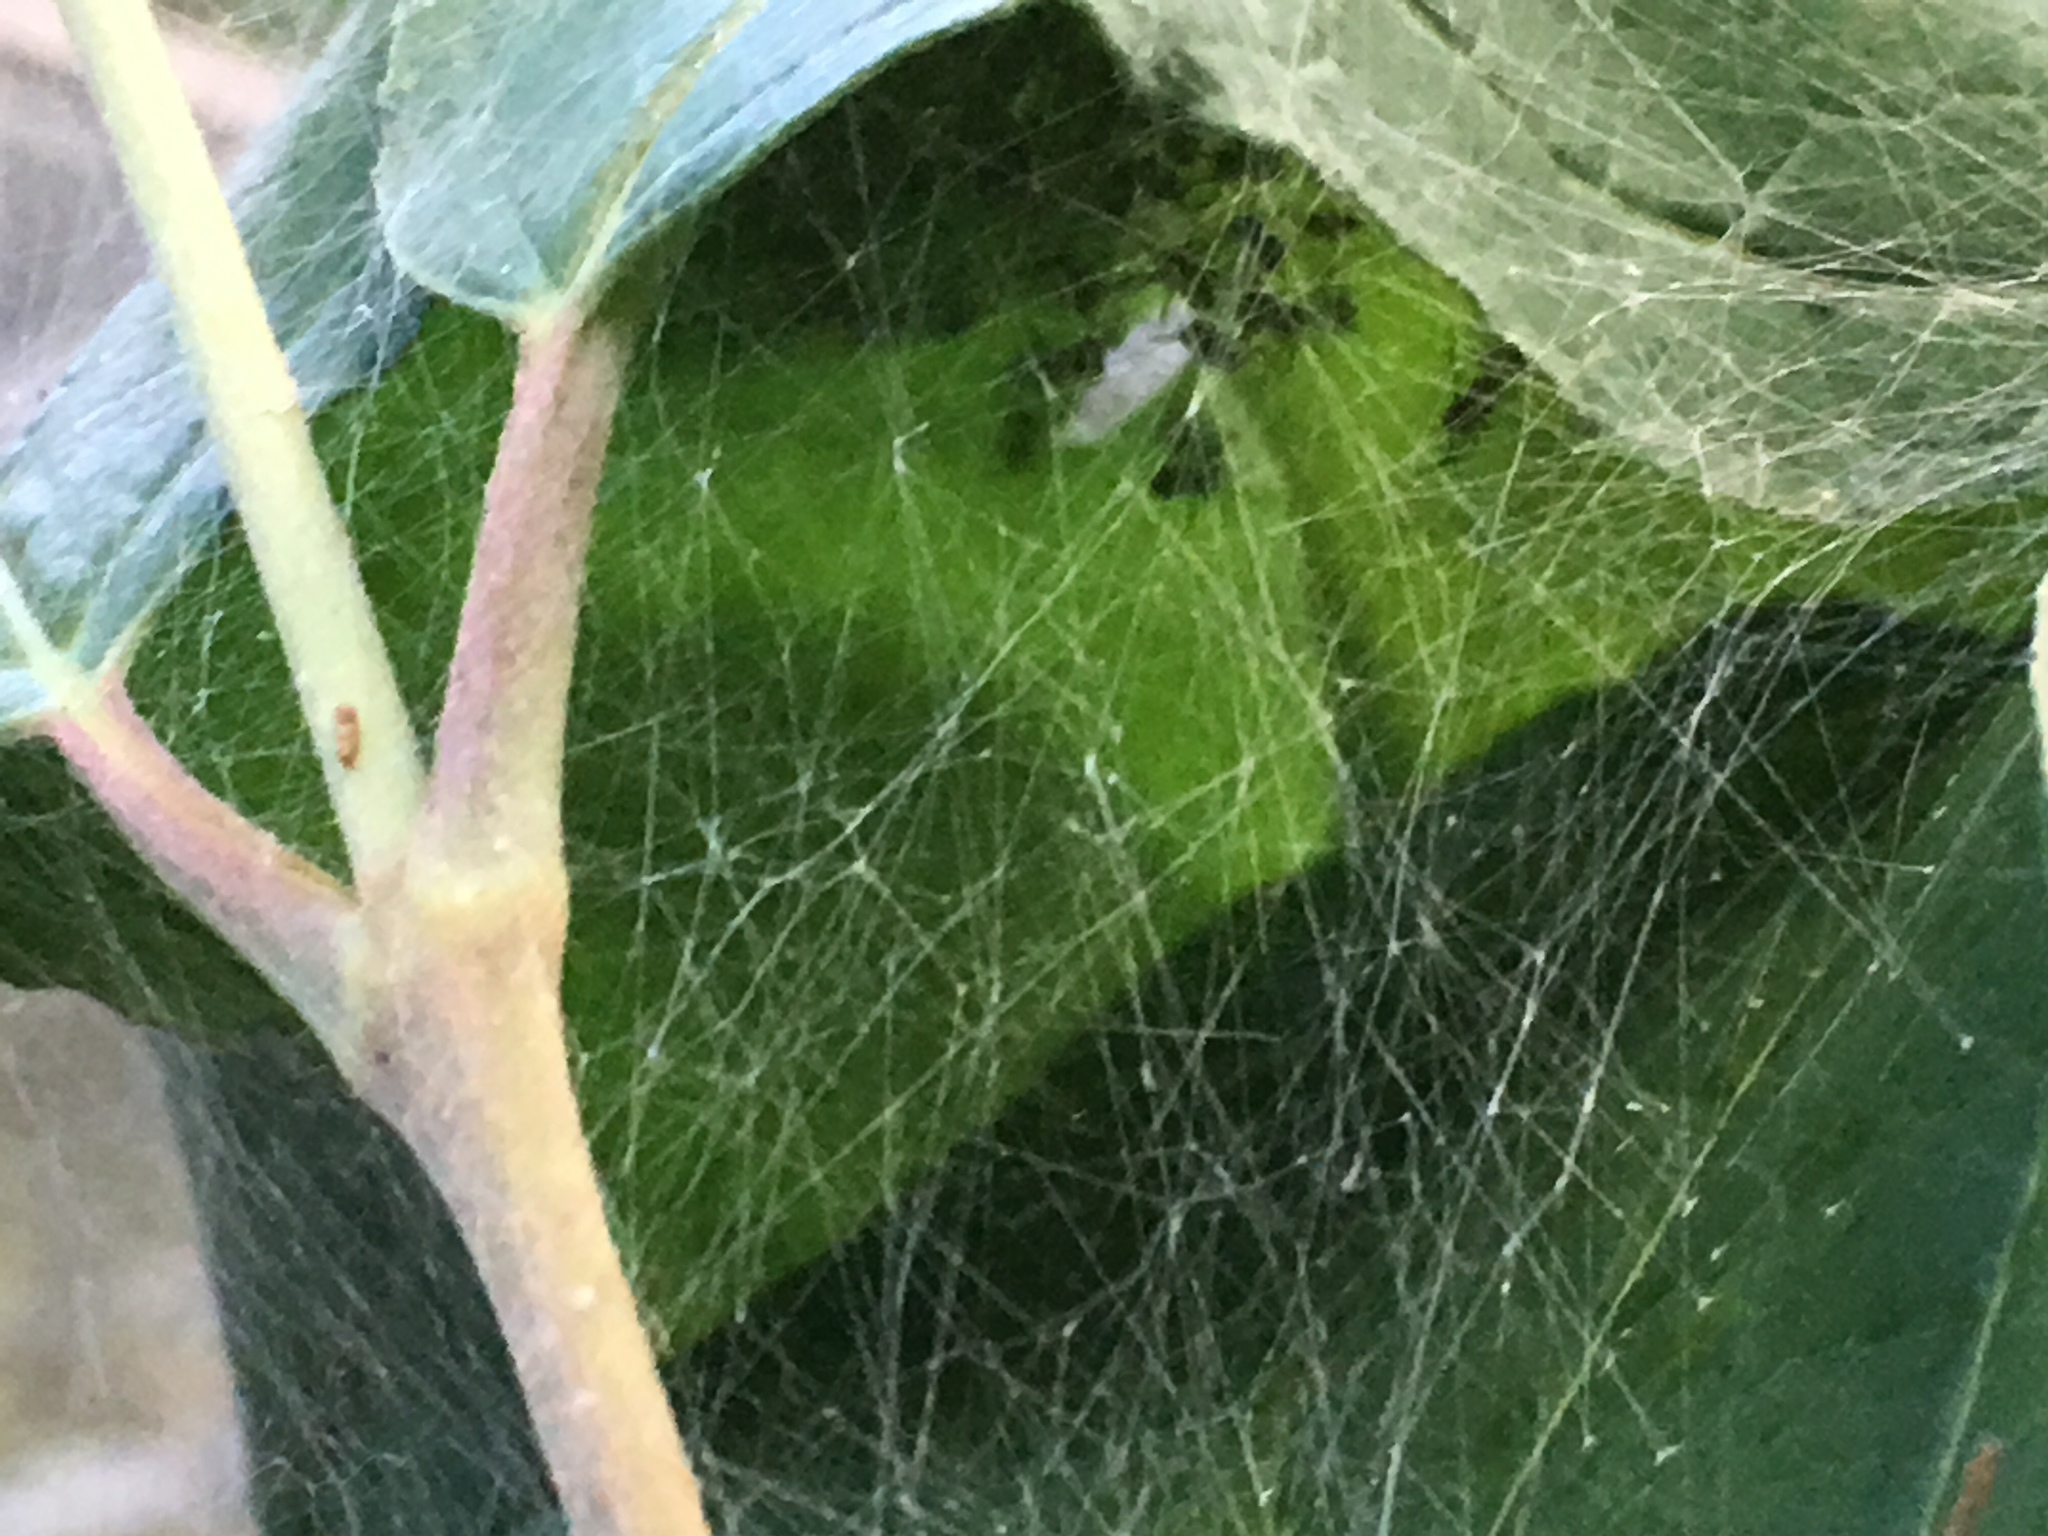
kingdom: Animalia
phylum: Arthropoda
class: Arachnida
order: Araneae
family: Pisauridae
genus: Pisaurina
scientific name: Pisaurina mira
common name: American nursery web spider
